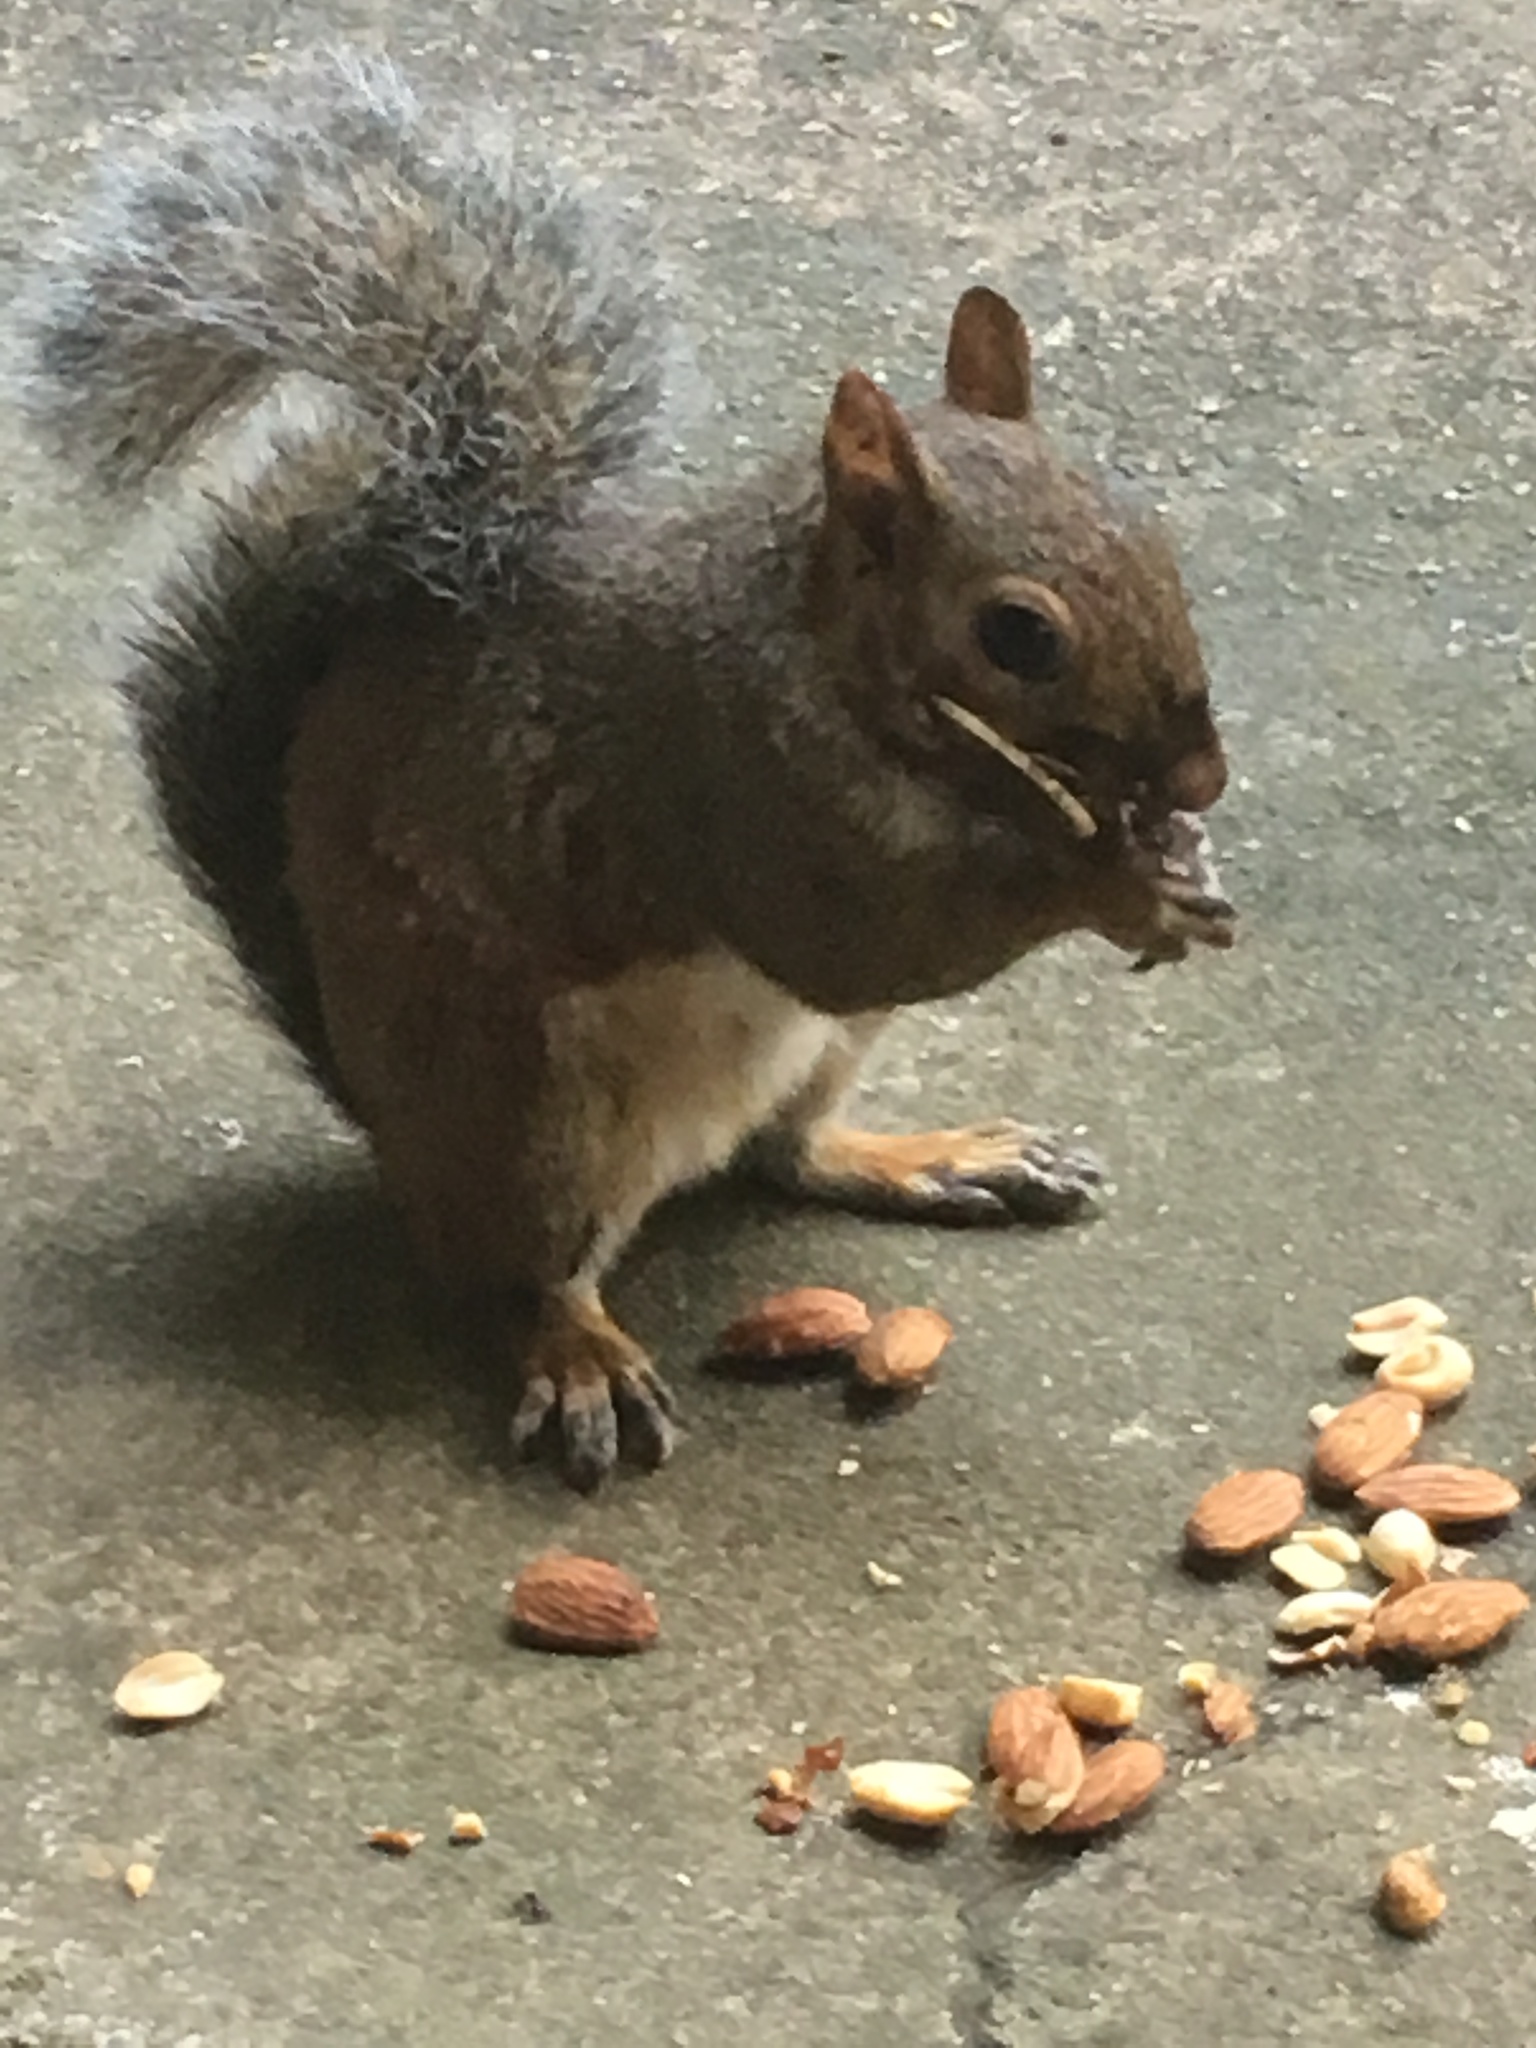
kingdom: Animalia
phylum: Chordata
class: Mammalia
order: Rodentia
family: Sciuridae
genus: Sciurus
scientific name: Sciurus carolinensis
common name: Eastern gray squirrel
